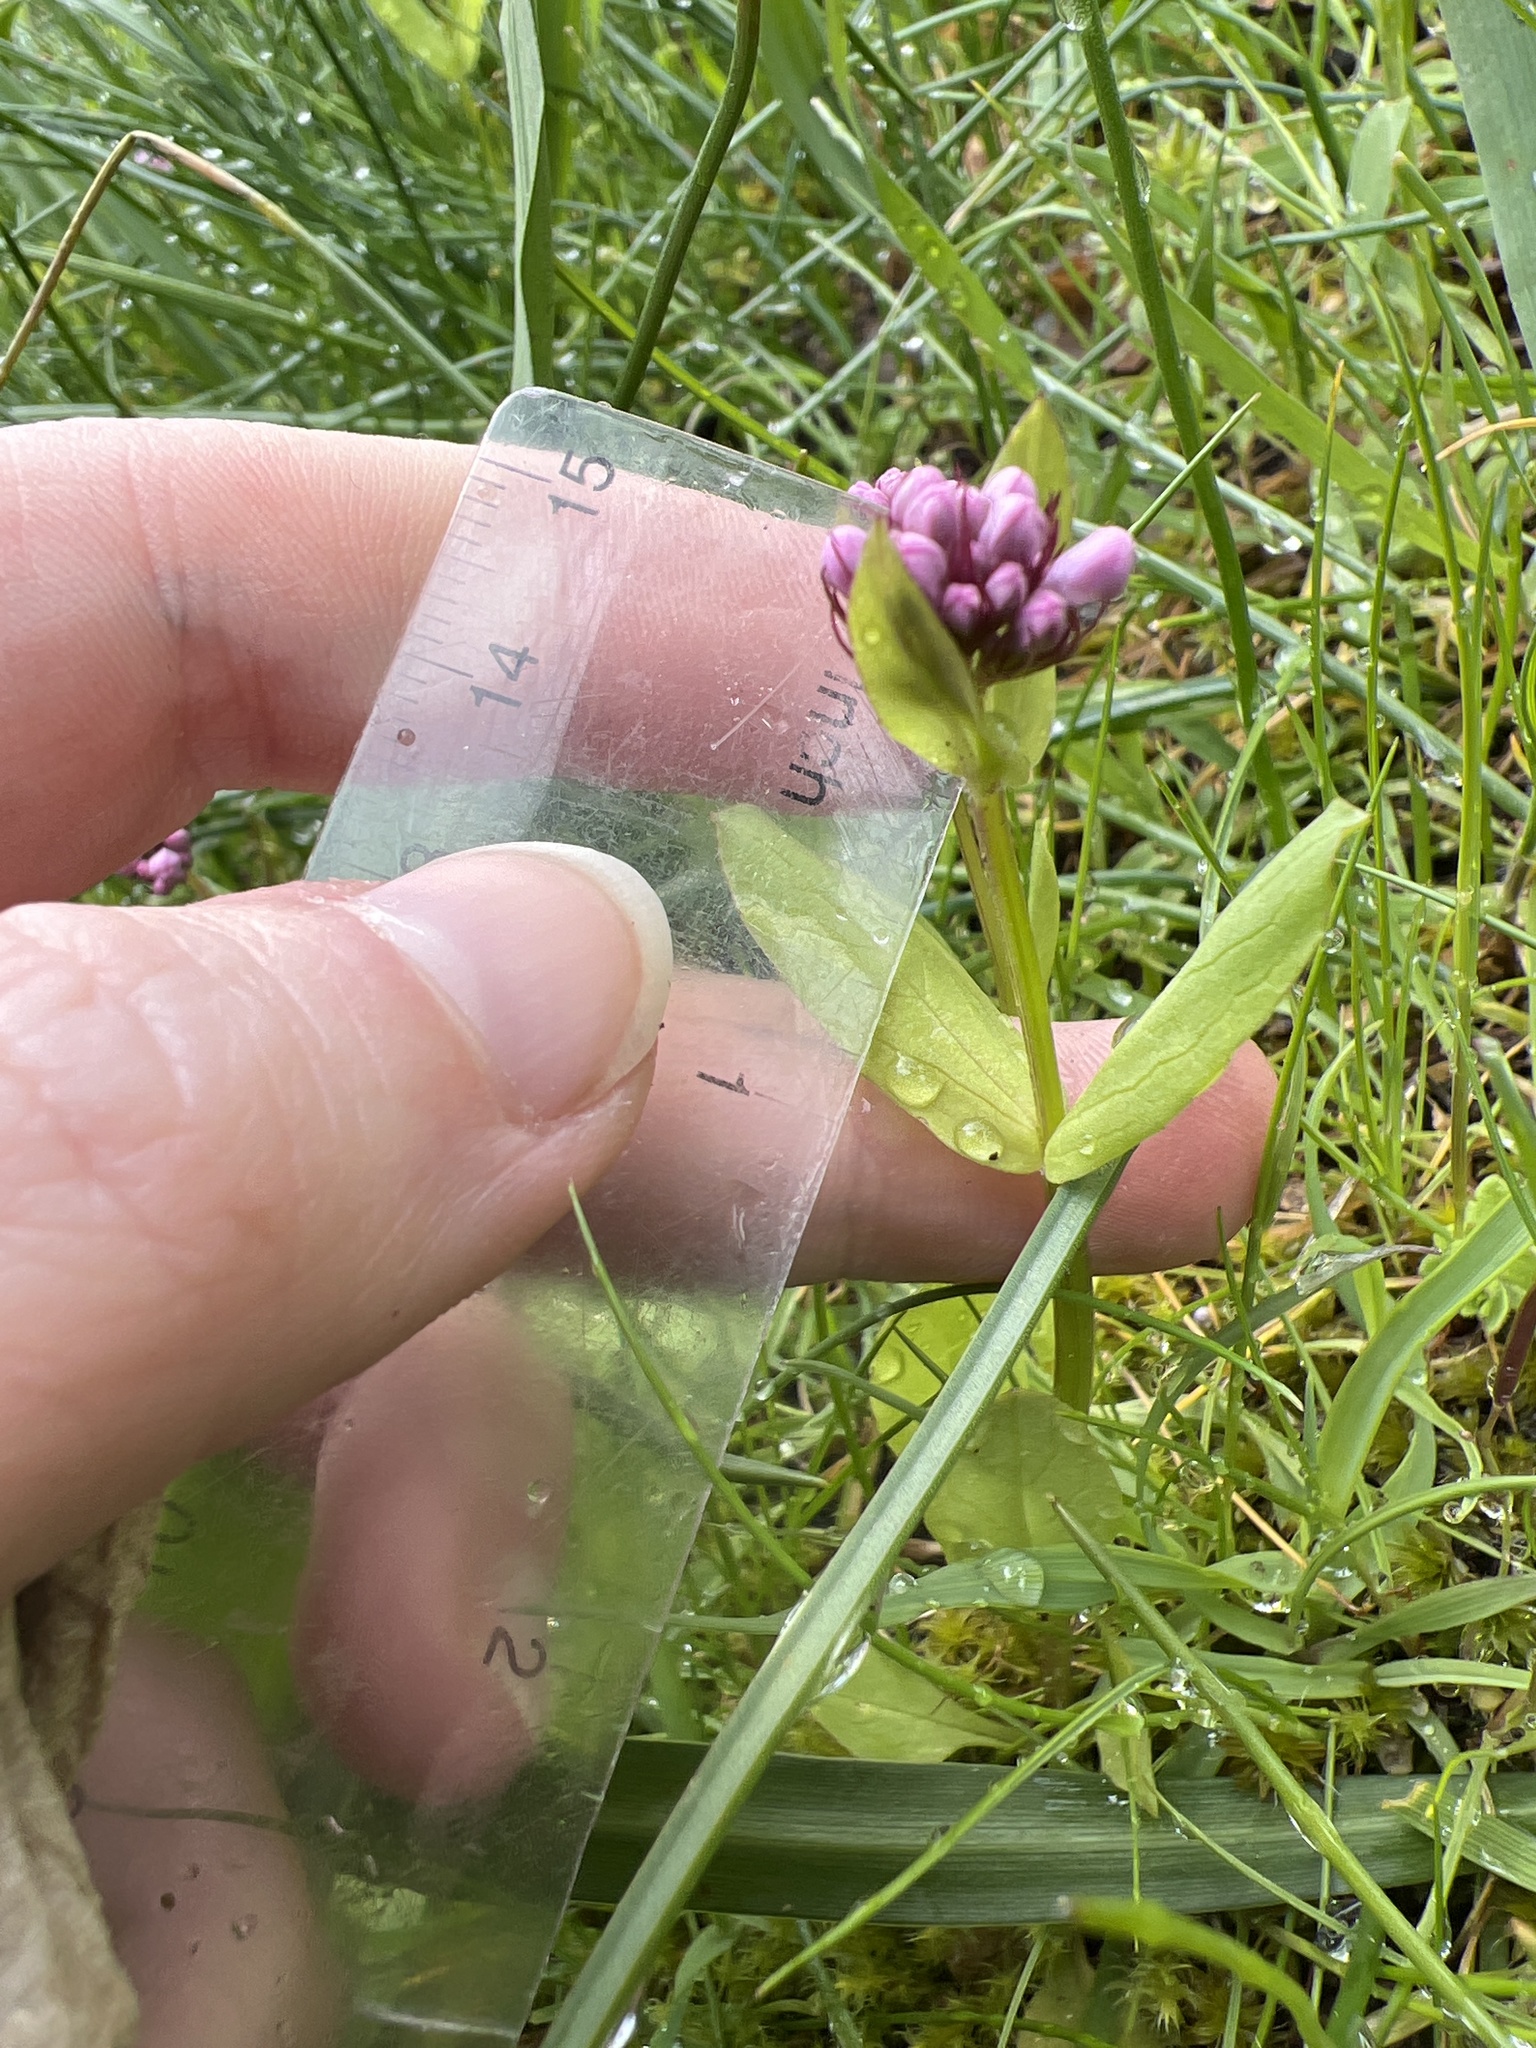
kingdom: Plantae
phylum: Tracheophyta
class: Magnoliopsida
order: Dipsacales
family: Caprifoliaceae
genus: Plectritis
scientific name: Plectritis congesta
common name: Pink plectritis
